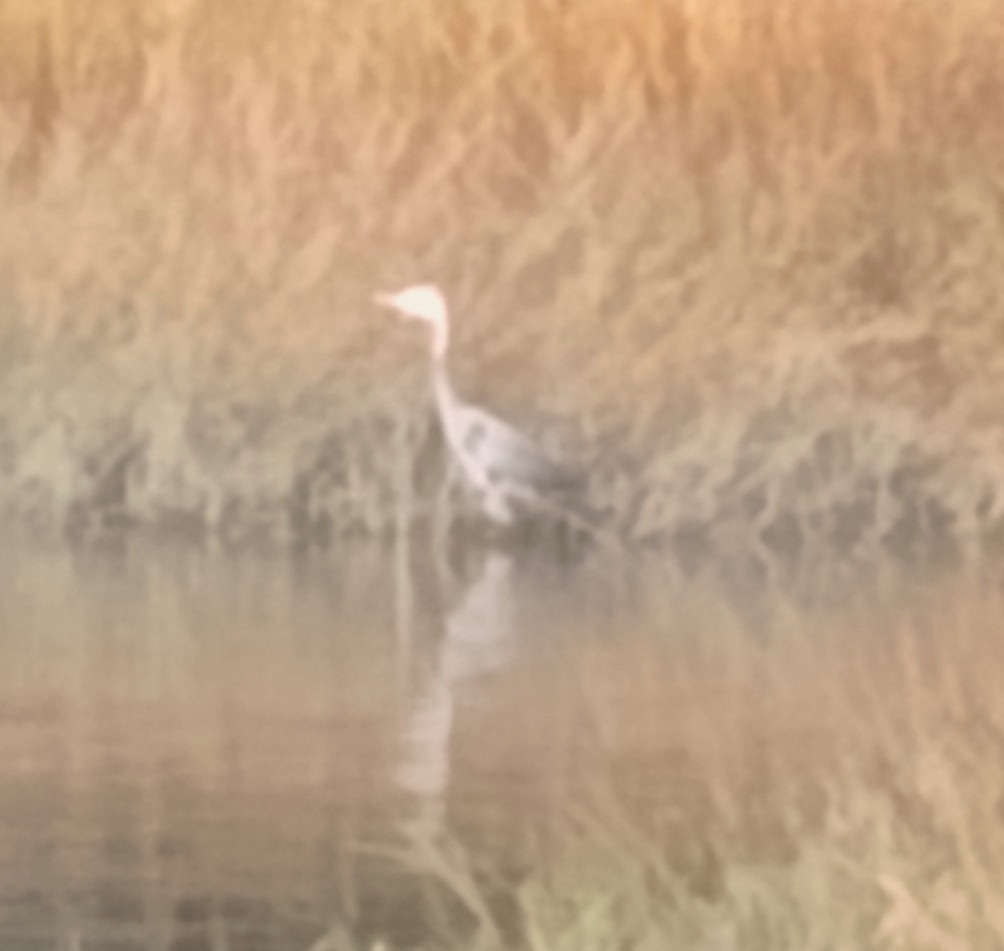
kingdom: Animalia
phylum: Chordata
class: Aves
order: Pelecaniformes
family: Ardeidae
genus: Ardea
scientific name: Ardea herodias
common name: Great blue heron
